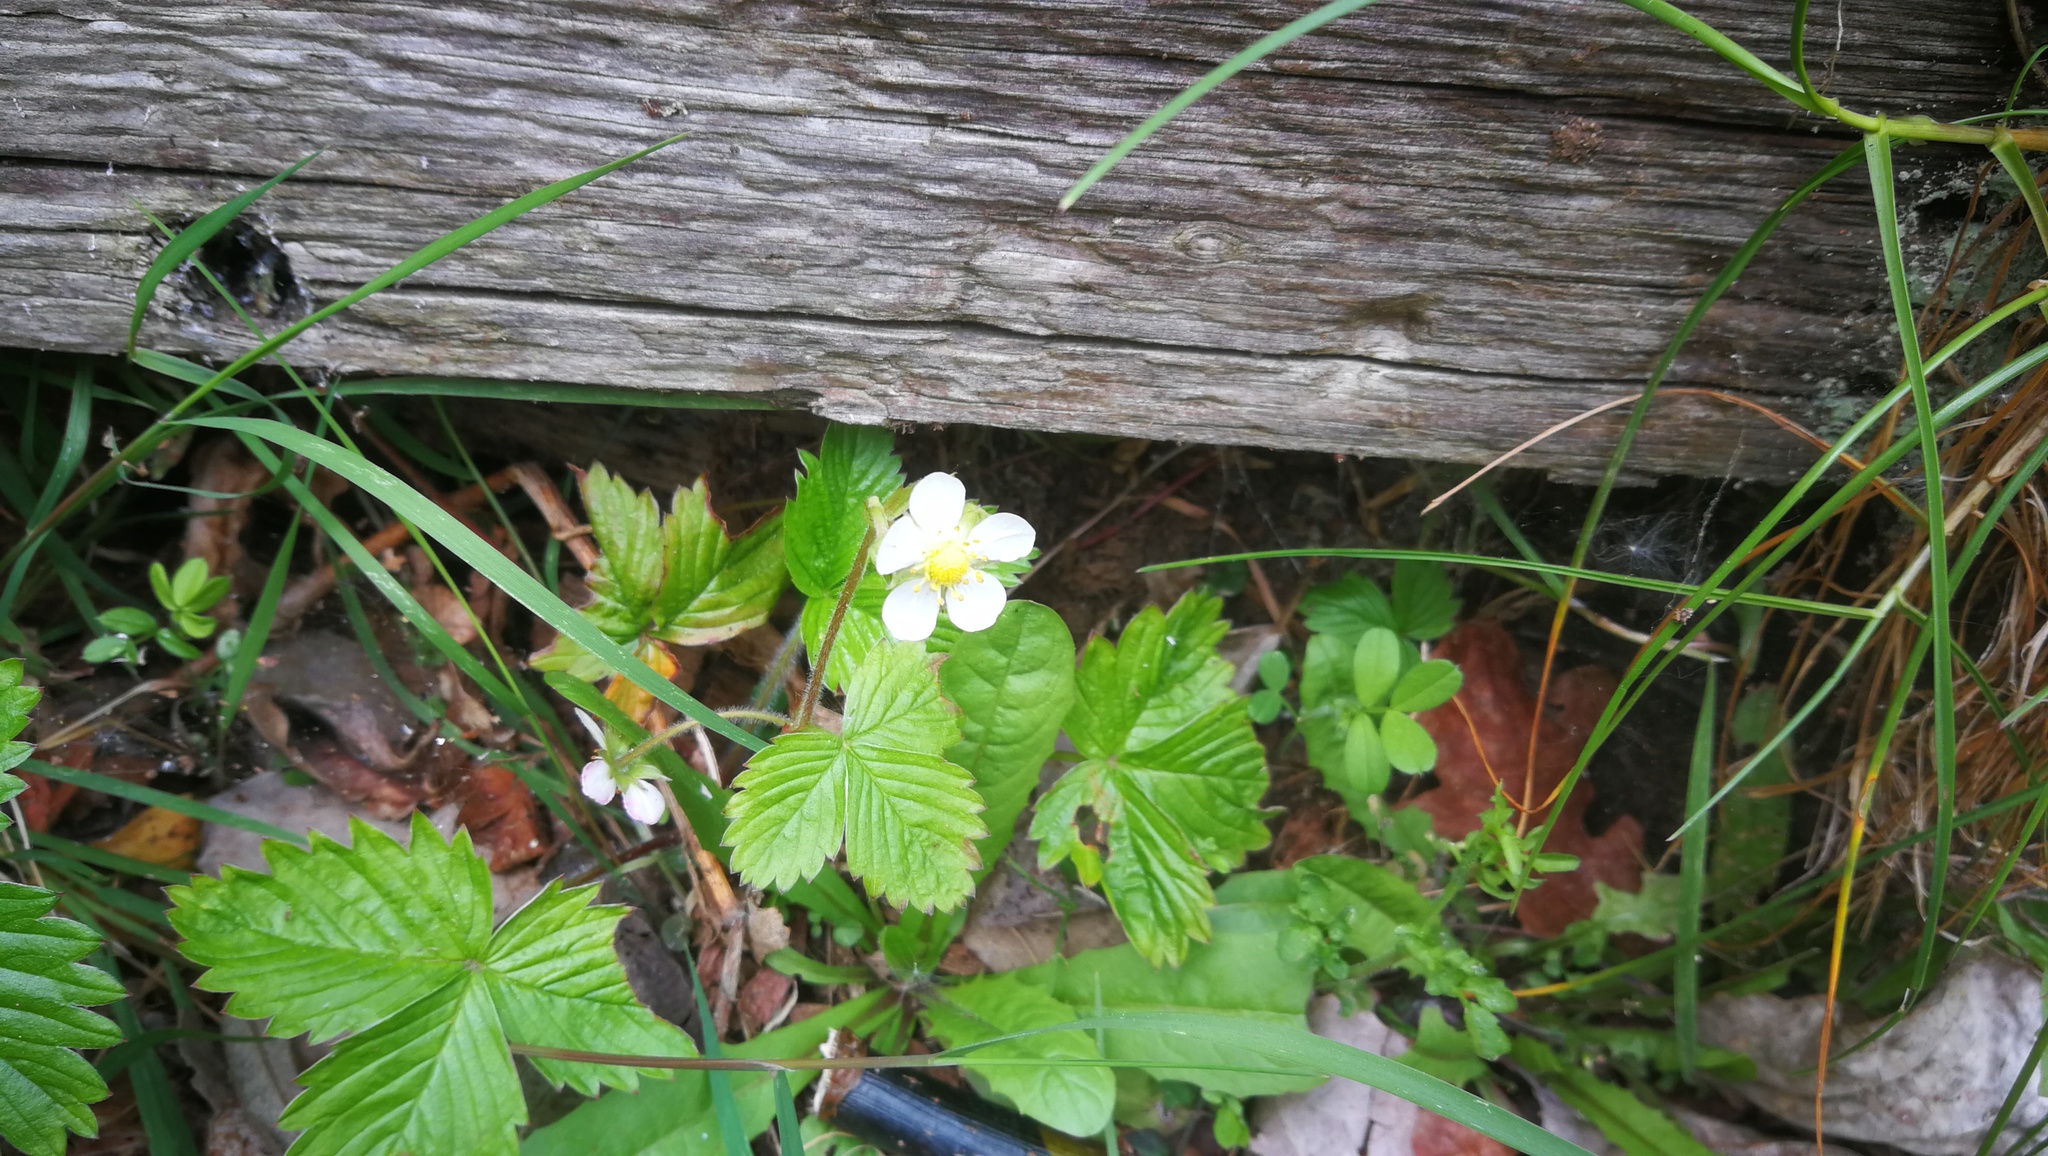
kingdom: Plantae
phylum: Tracheophyta
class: Magnoliopsida
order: Rosales
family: Rosaceae
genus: Fragaria
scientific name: Fragaria vesca
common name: Wild strawberry
